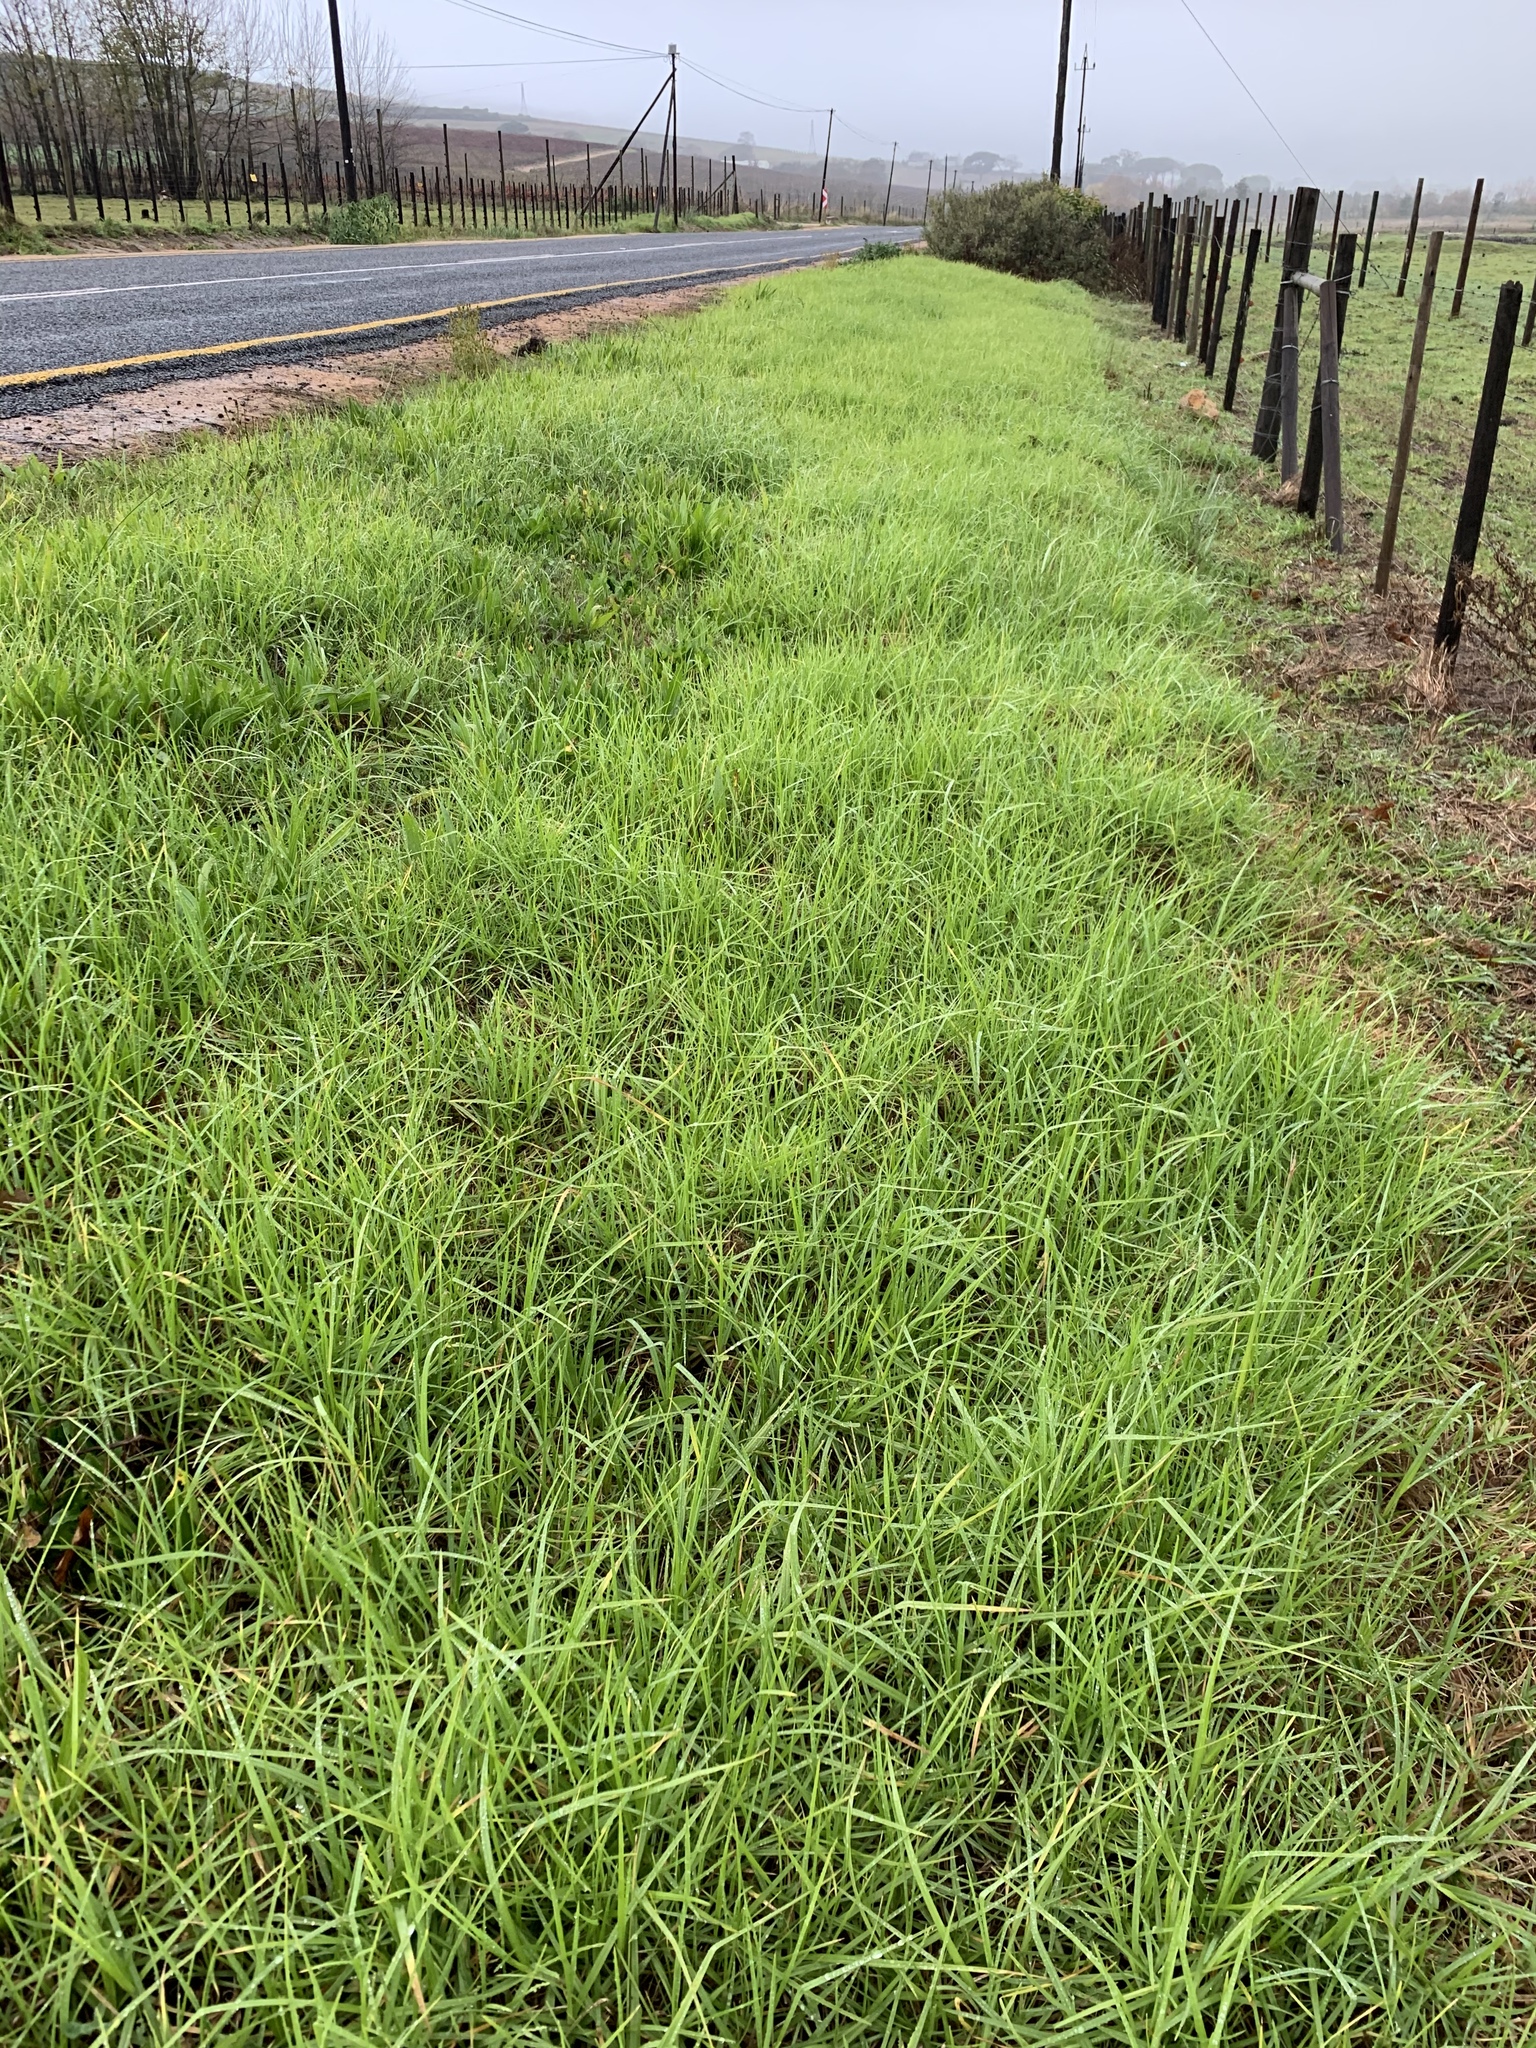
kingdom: Plantae
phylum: Tracheophyta
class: Liliopsida
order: Poales
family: Poaceae
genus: Cenchrus
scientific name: Cenchrus clandestinus
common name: Kikuyugrass
